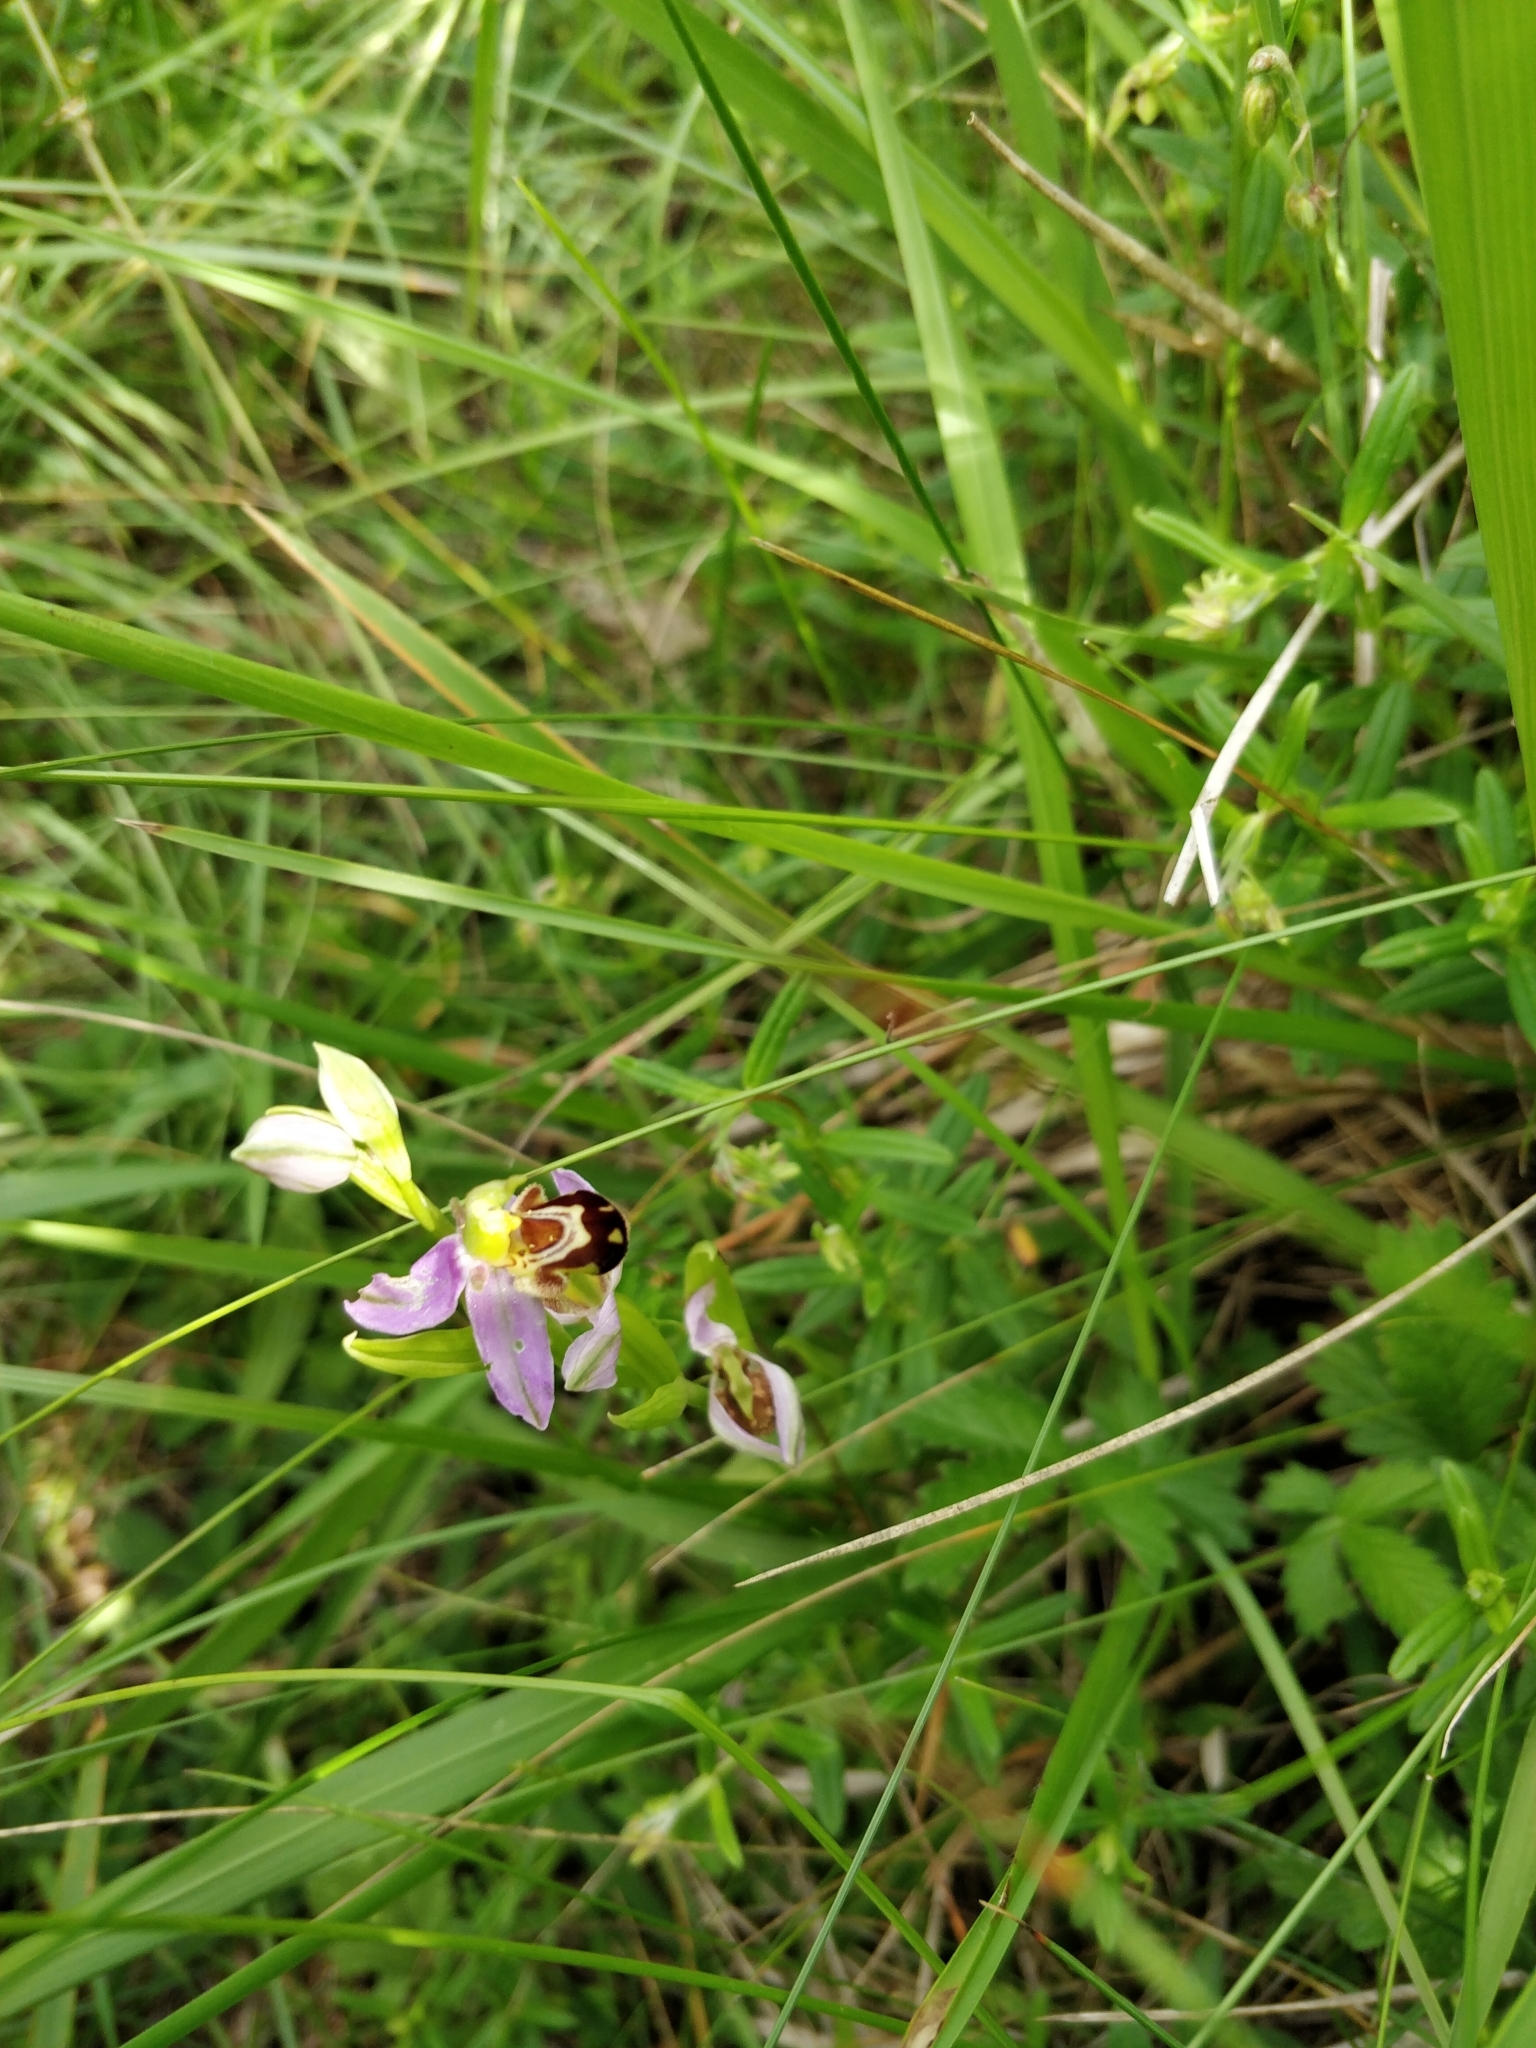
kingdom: Plantae
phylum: Tracheophyta
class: Liliopsida
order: Asparagales
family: Orchidaceae
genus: Ophrys
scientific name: Ophrys apifera
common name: Bee orchid
